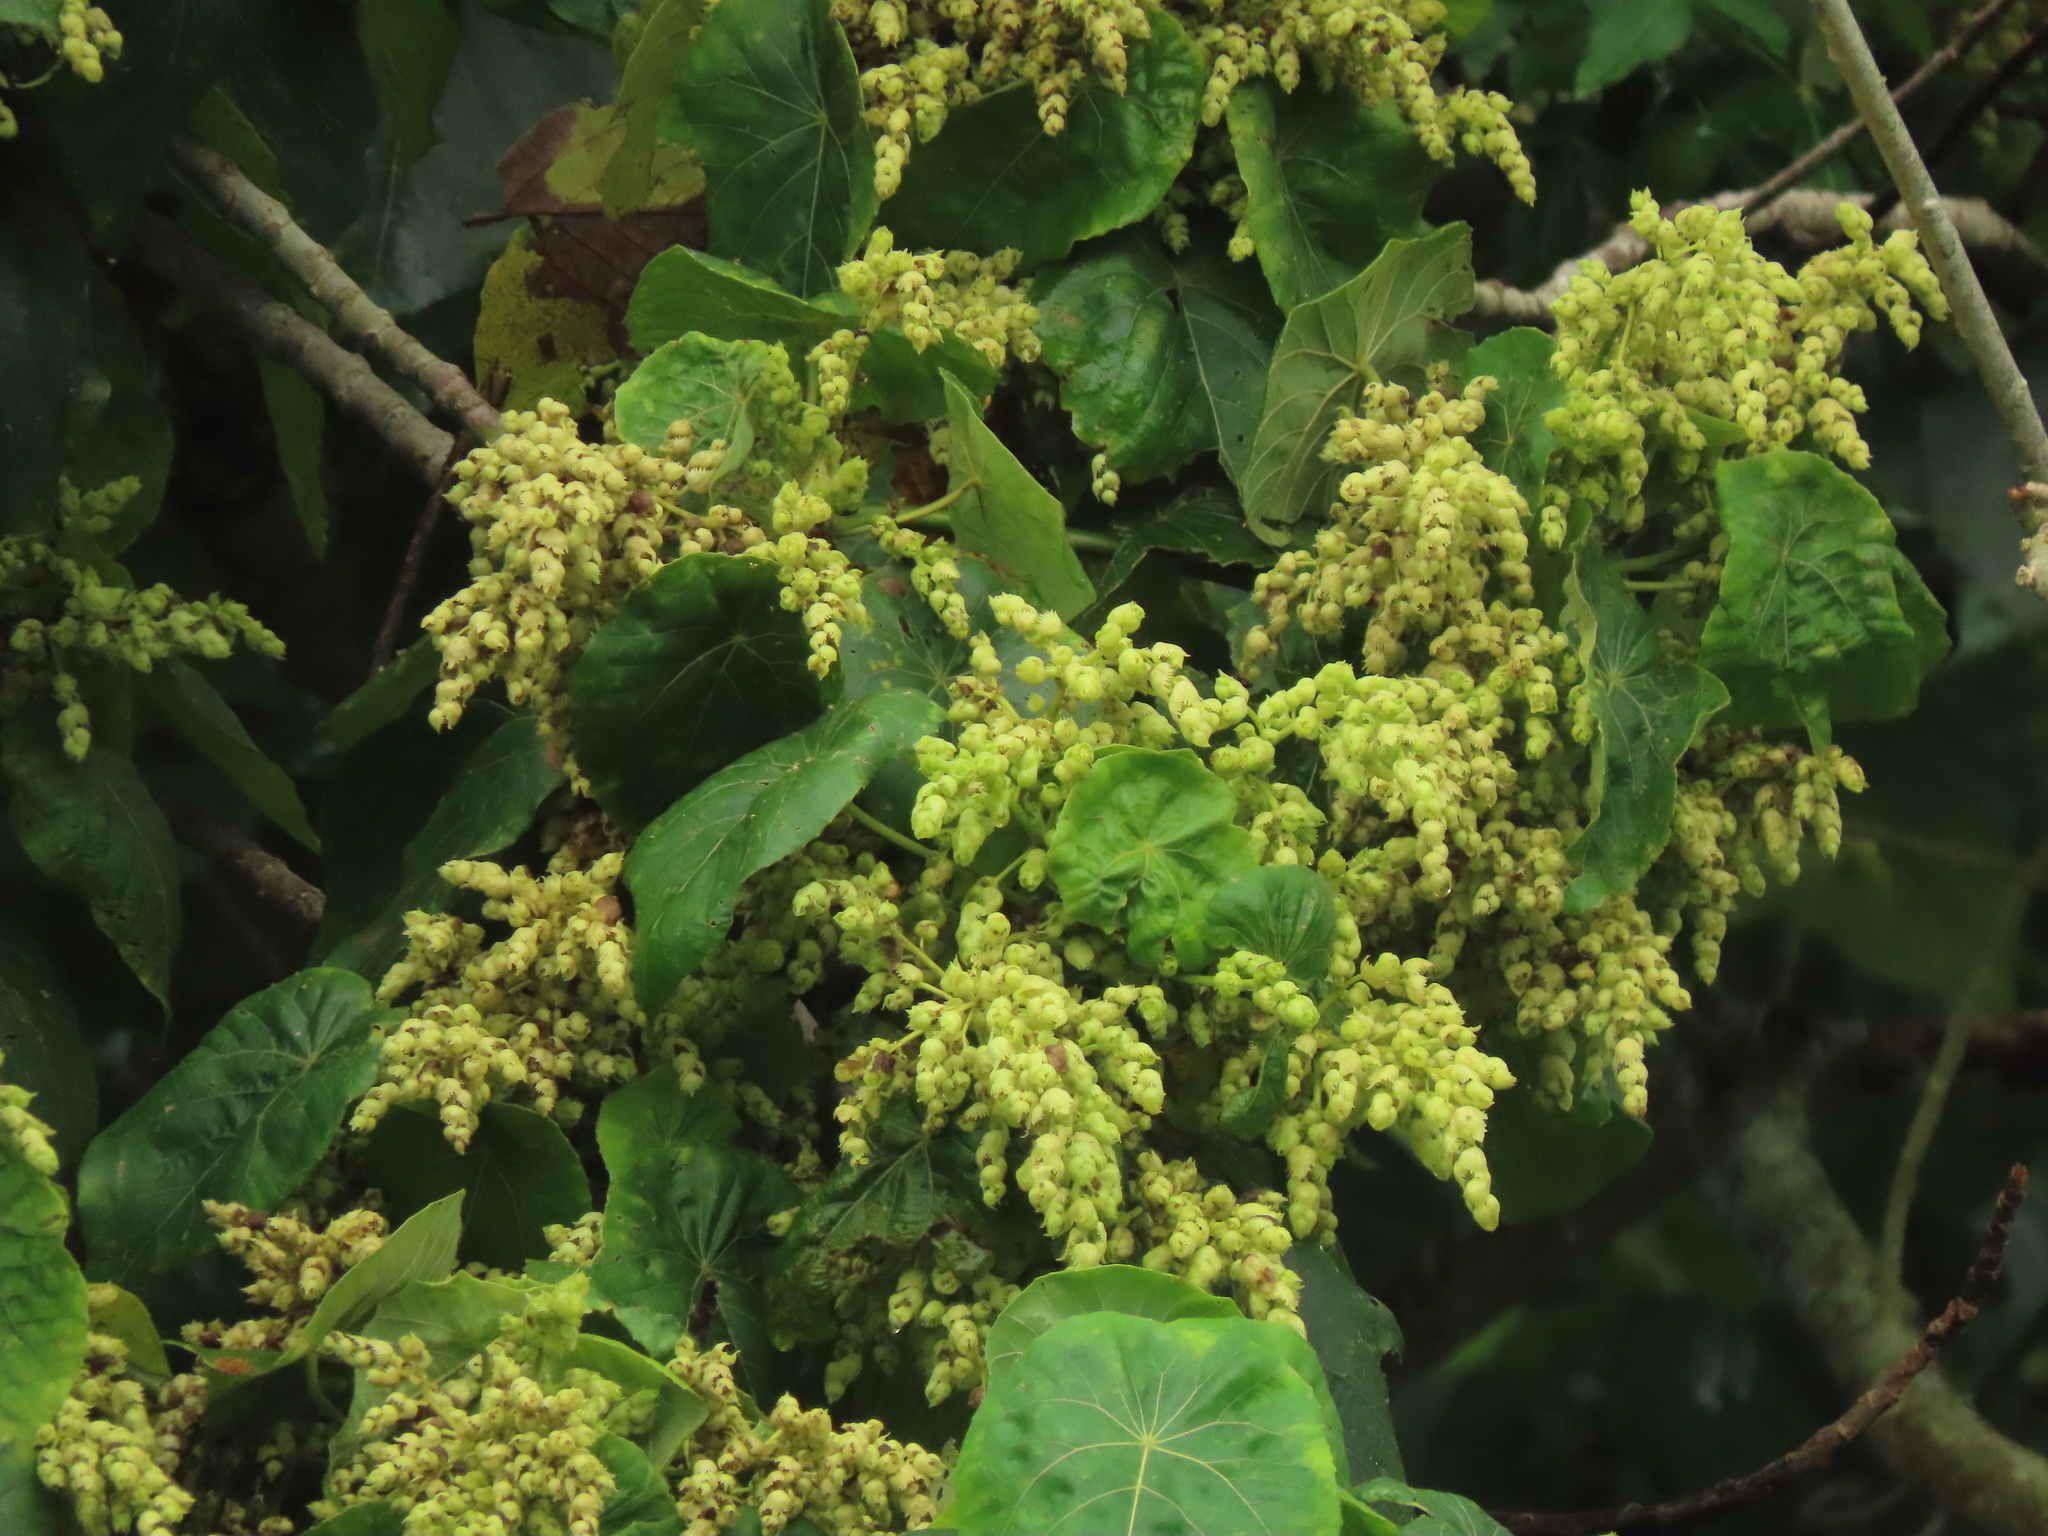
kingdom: Plantae
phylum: Tracheophyta
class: Magnoliopsida
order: Malpighiales
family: Euphorbiaceae
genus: Macaranga
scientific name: Macaranga tanarius
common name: Parasol leaf tree
